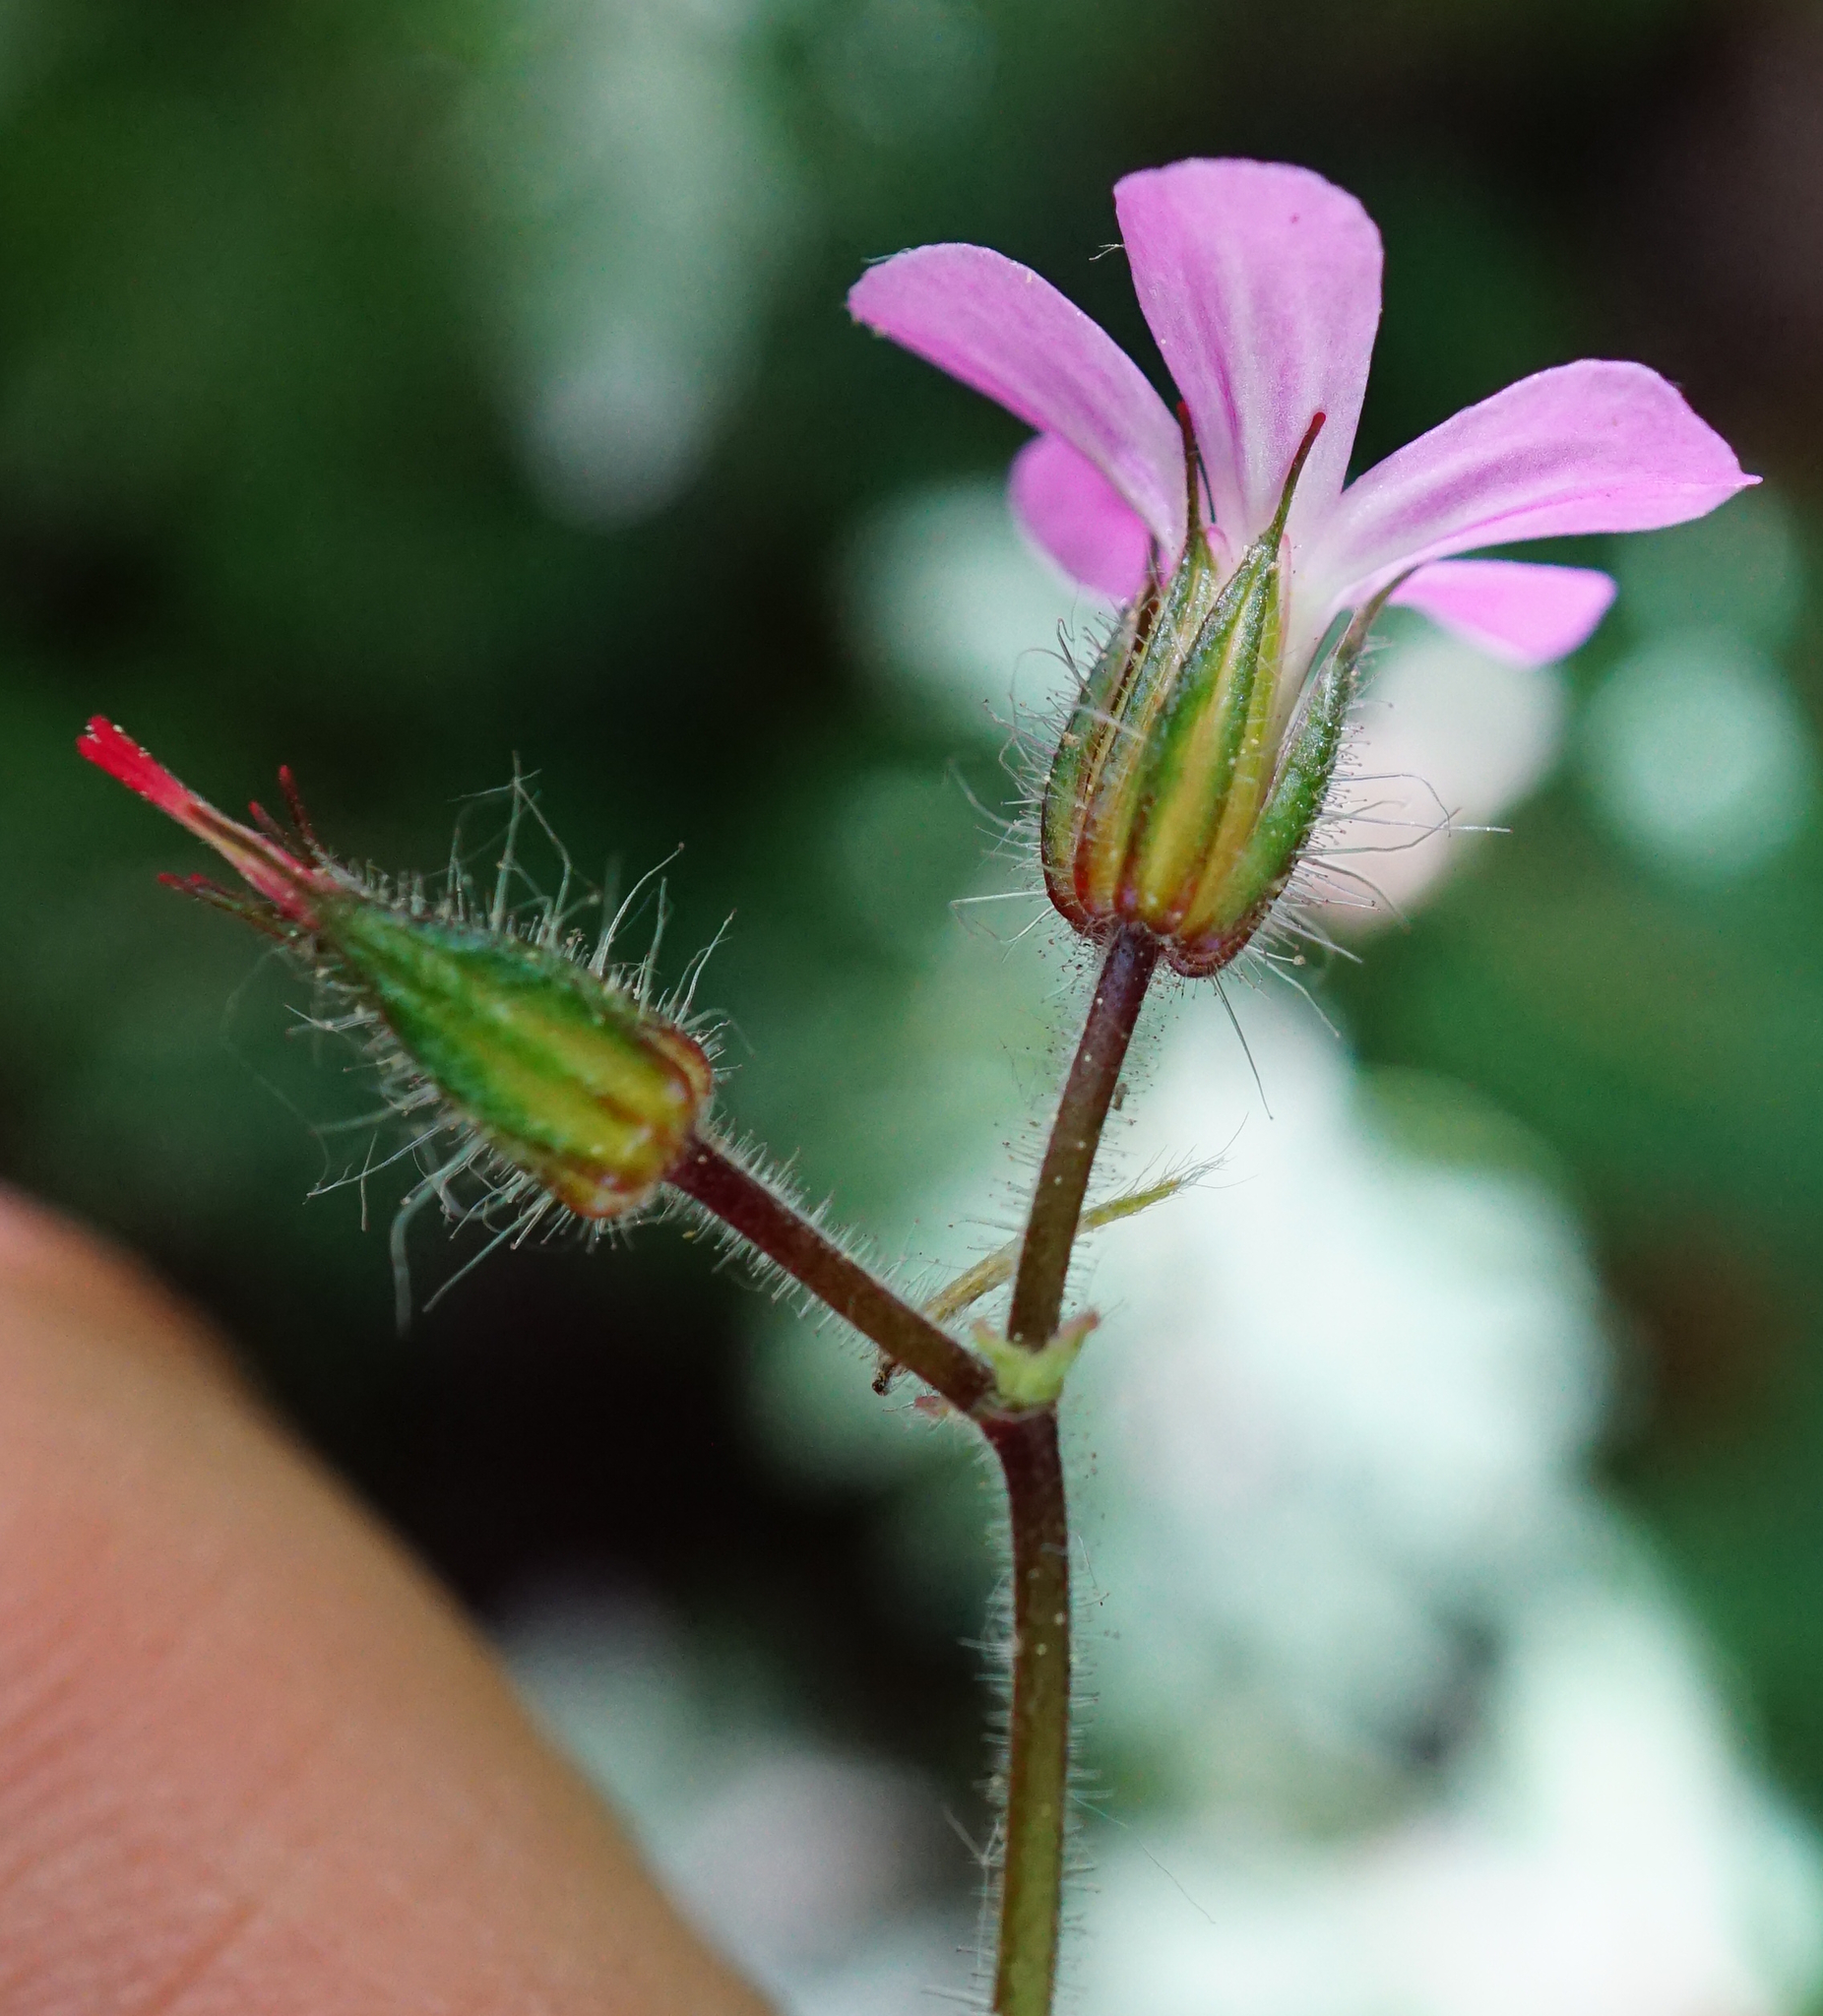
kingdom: Plantae
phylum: Tracheophyta
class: Magnoliopsida
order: Geraniales
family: Geraniaceae
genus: Geranium
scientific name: Geranium robertianum
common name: Herb-robert
